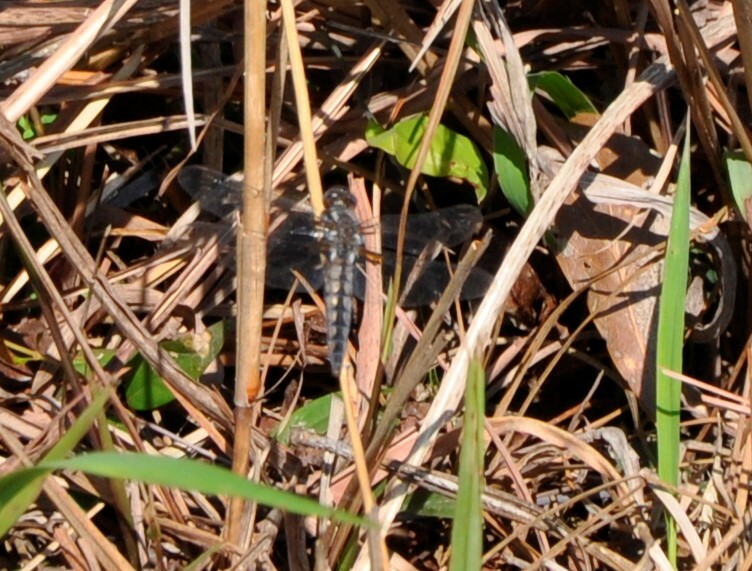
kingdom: Animalia
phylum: Arthropoda
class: Insecta
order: Odonata
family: Libellulidae
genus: Ladona
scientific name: Ladona deplanata
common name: Blue corporal
